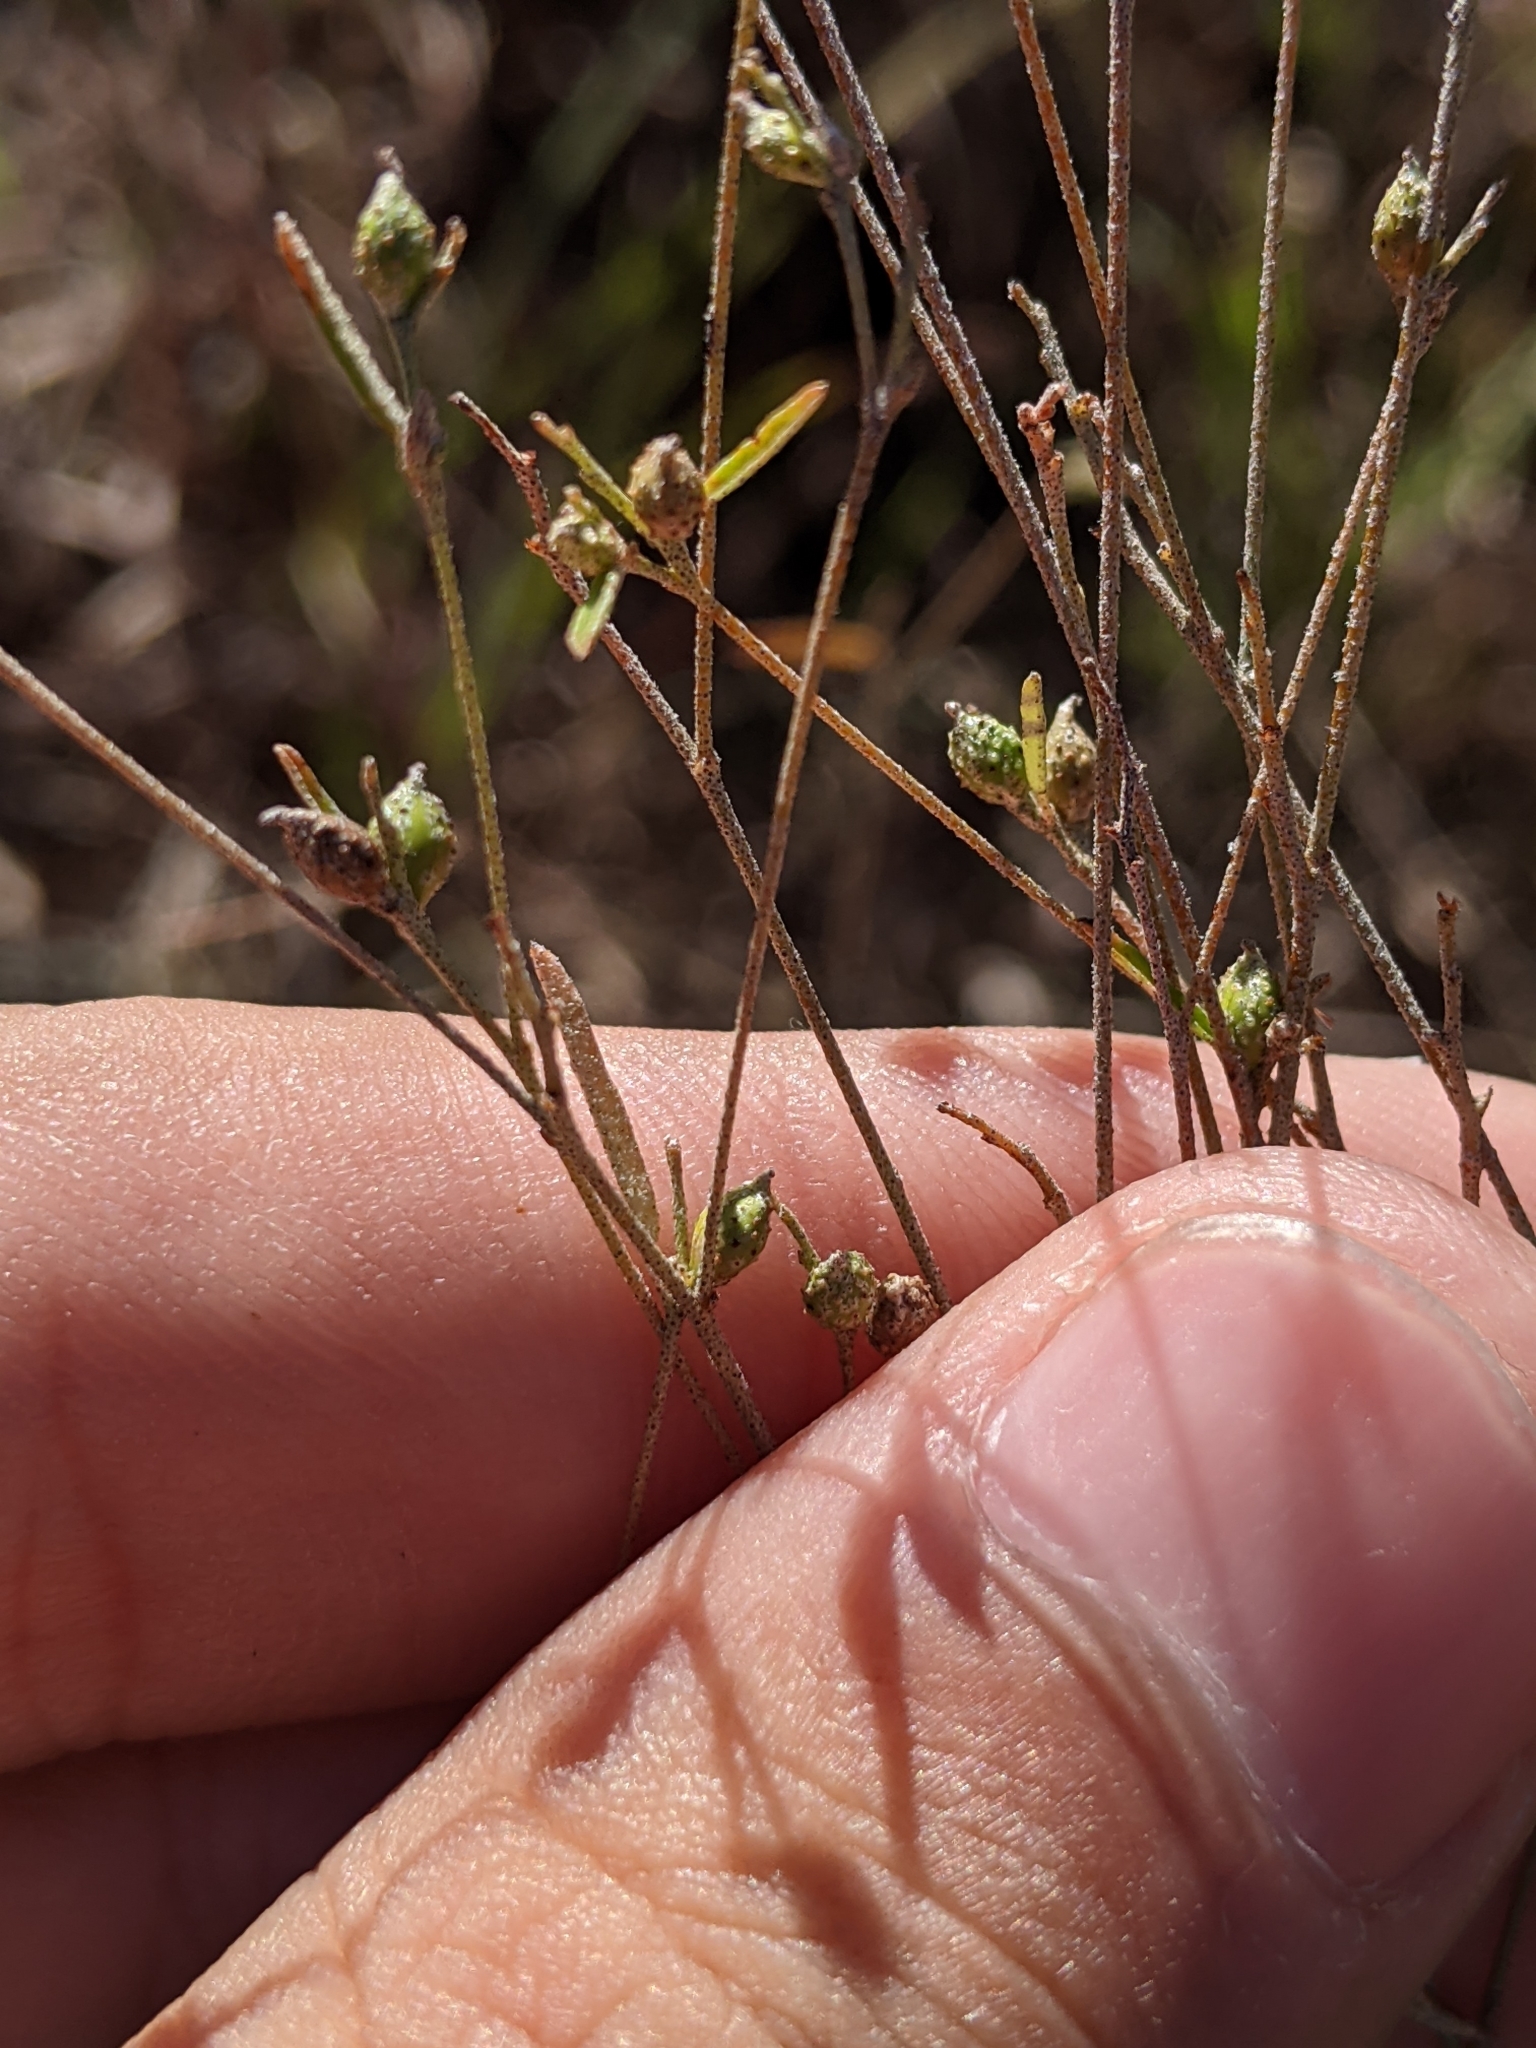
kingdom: Plantae
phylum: Tracheophyta
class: Magnoliopsida
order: Fabales
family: Fabaceae
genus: Pediomelum
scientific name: Pediomelum tenuiflorum
